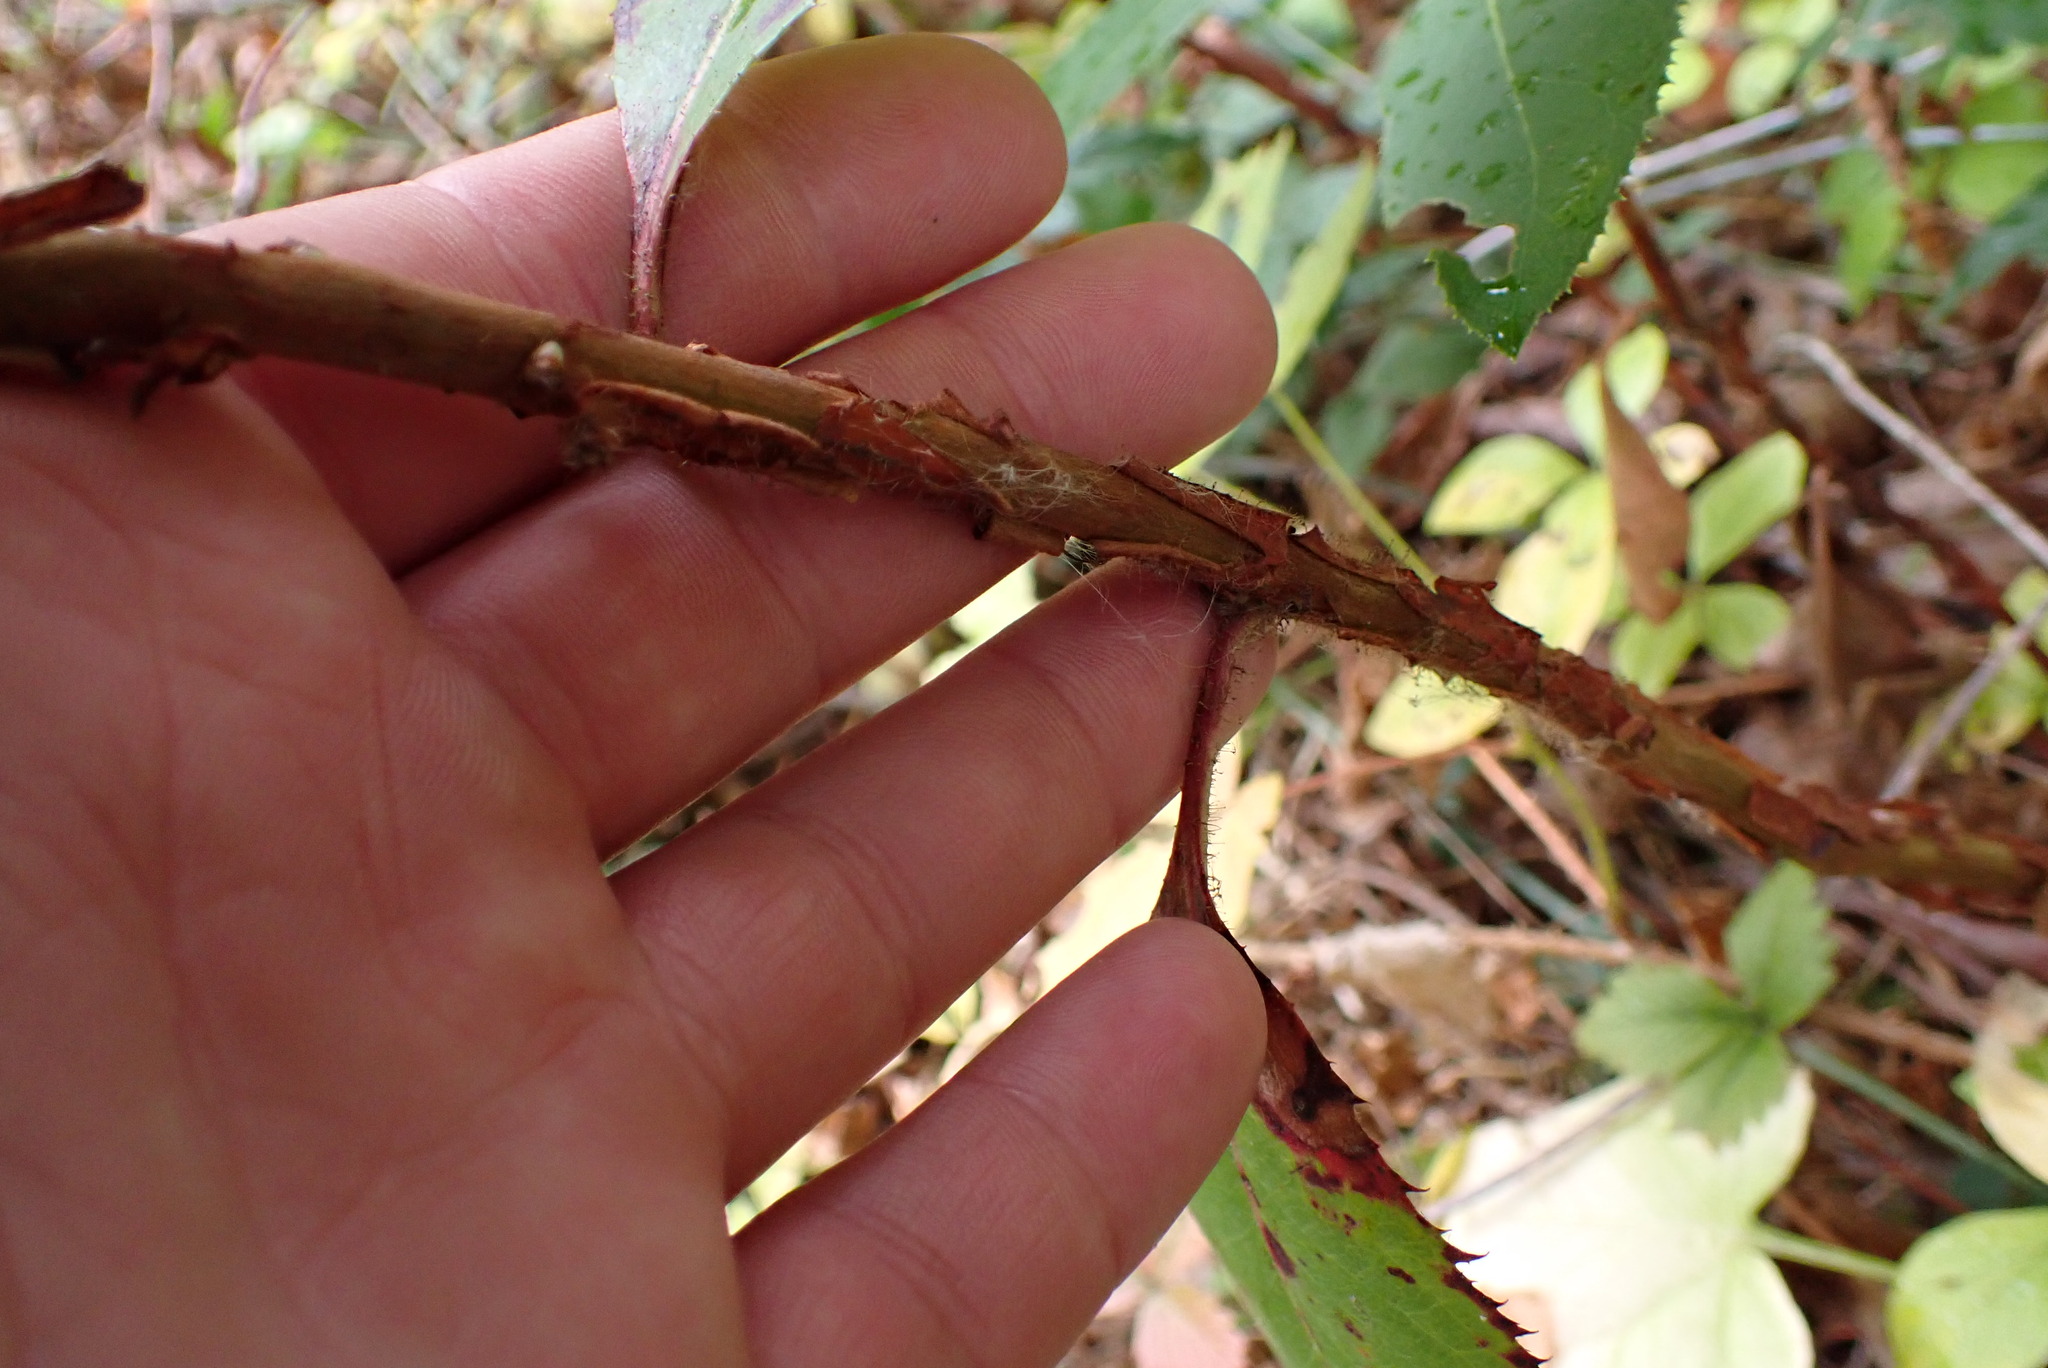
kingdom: Plantae
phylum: Tracheophyta
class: Magnoliopsida
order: Ericales
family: Ericaceae
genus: Arbutus
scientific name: Arbutus menziesii
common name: Pacific madrone
